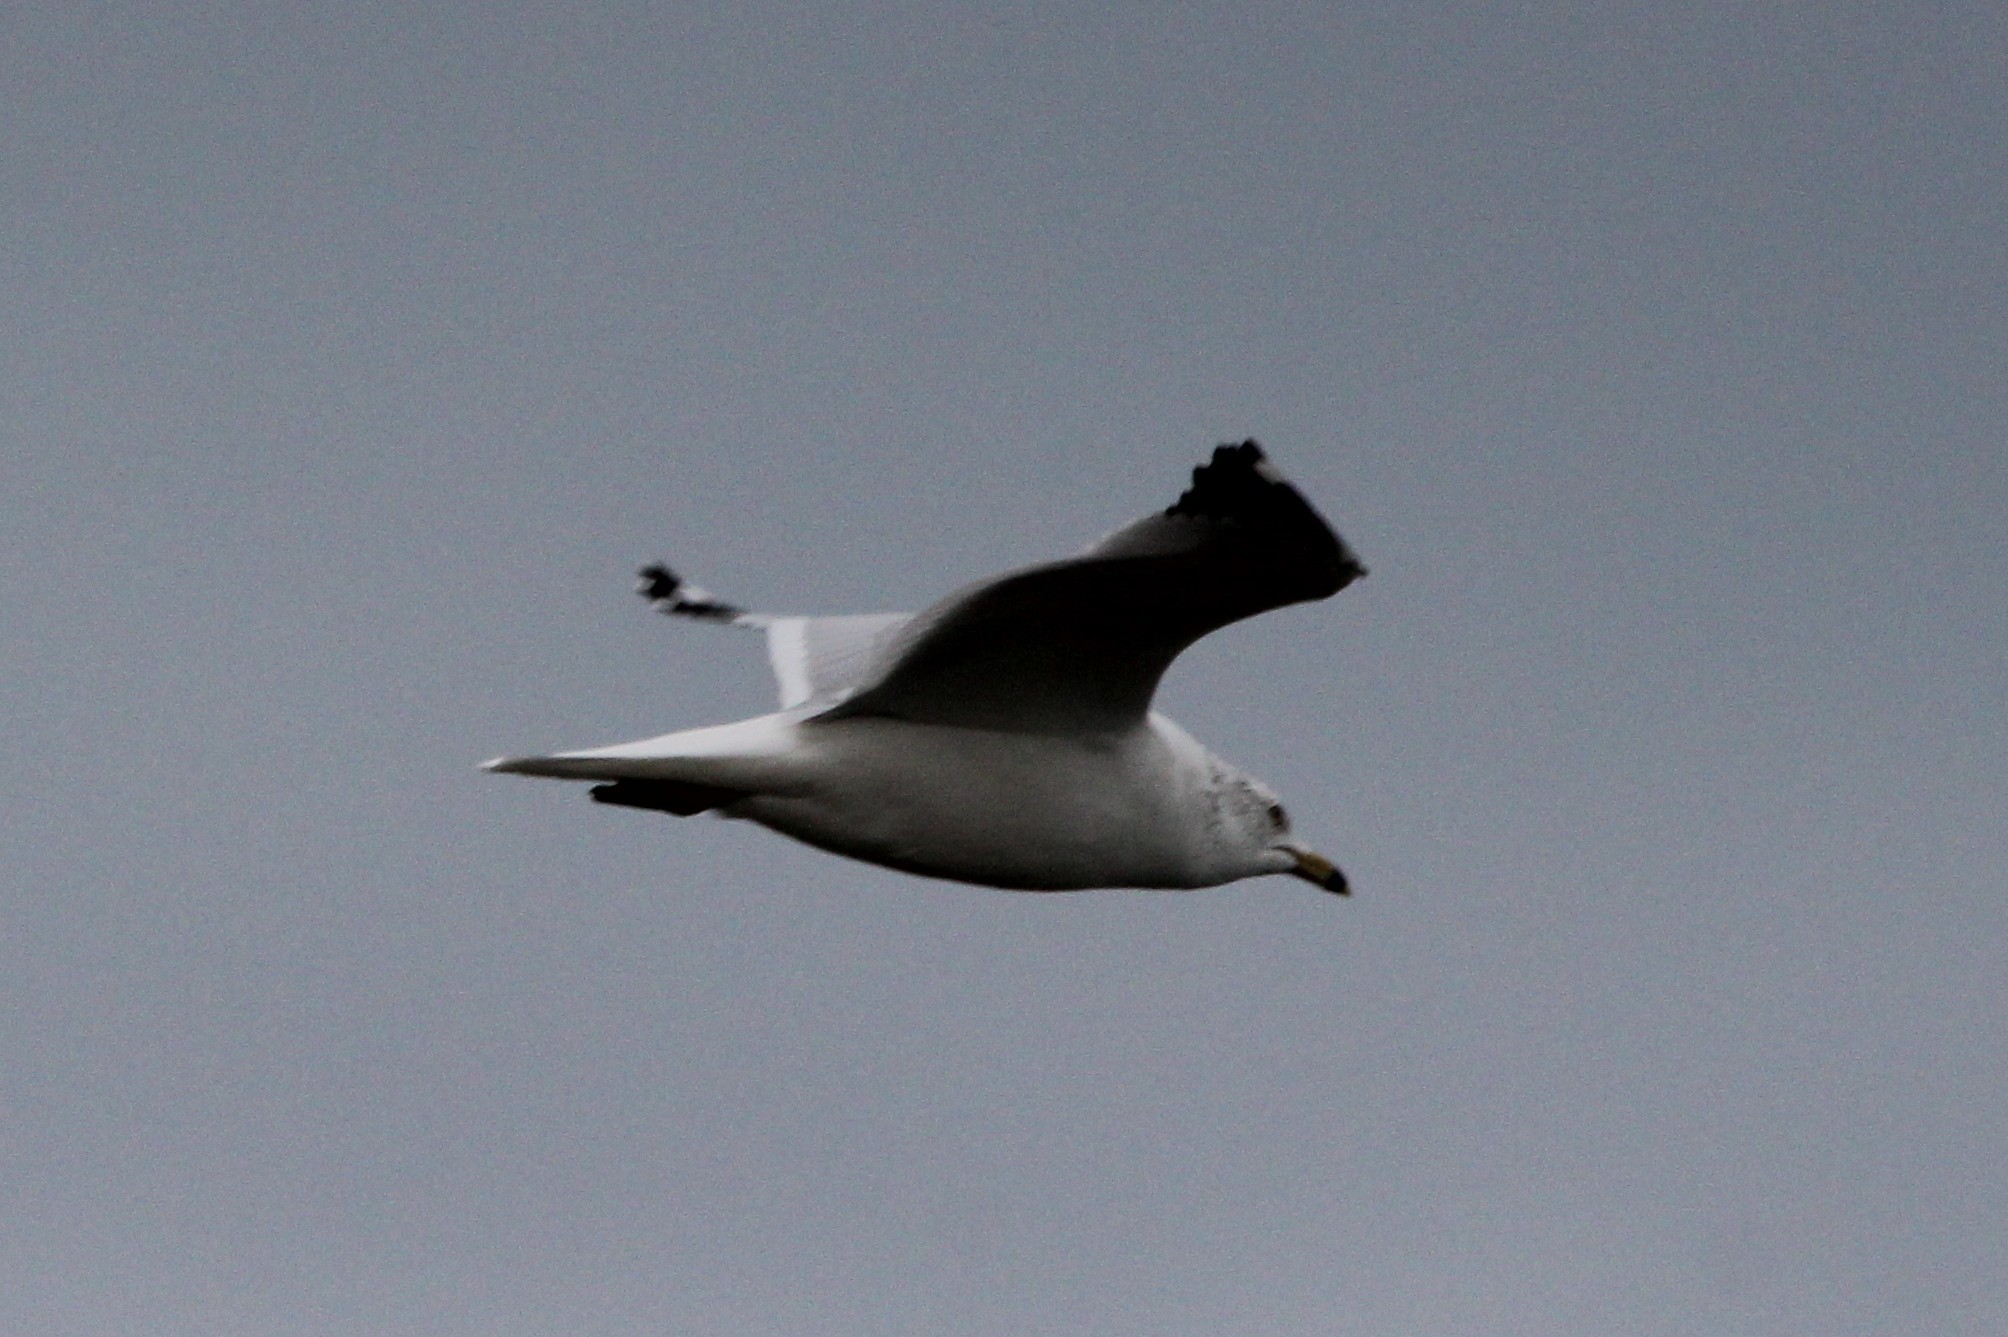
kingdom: Animalia
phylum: Chordata
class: Aves
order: Charadriiformes
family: Laridae
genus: Larus
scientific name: Larus delawarensis
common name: Ring-billed gull
